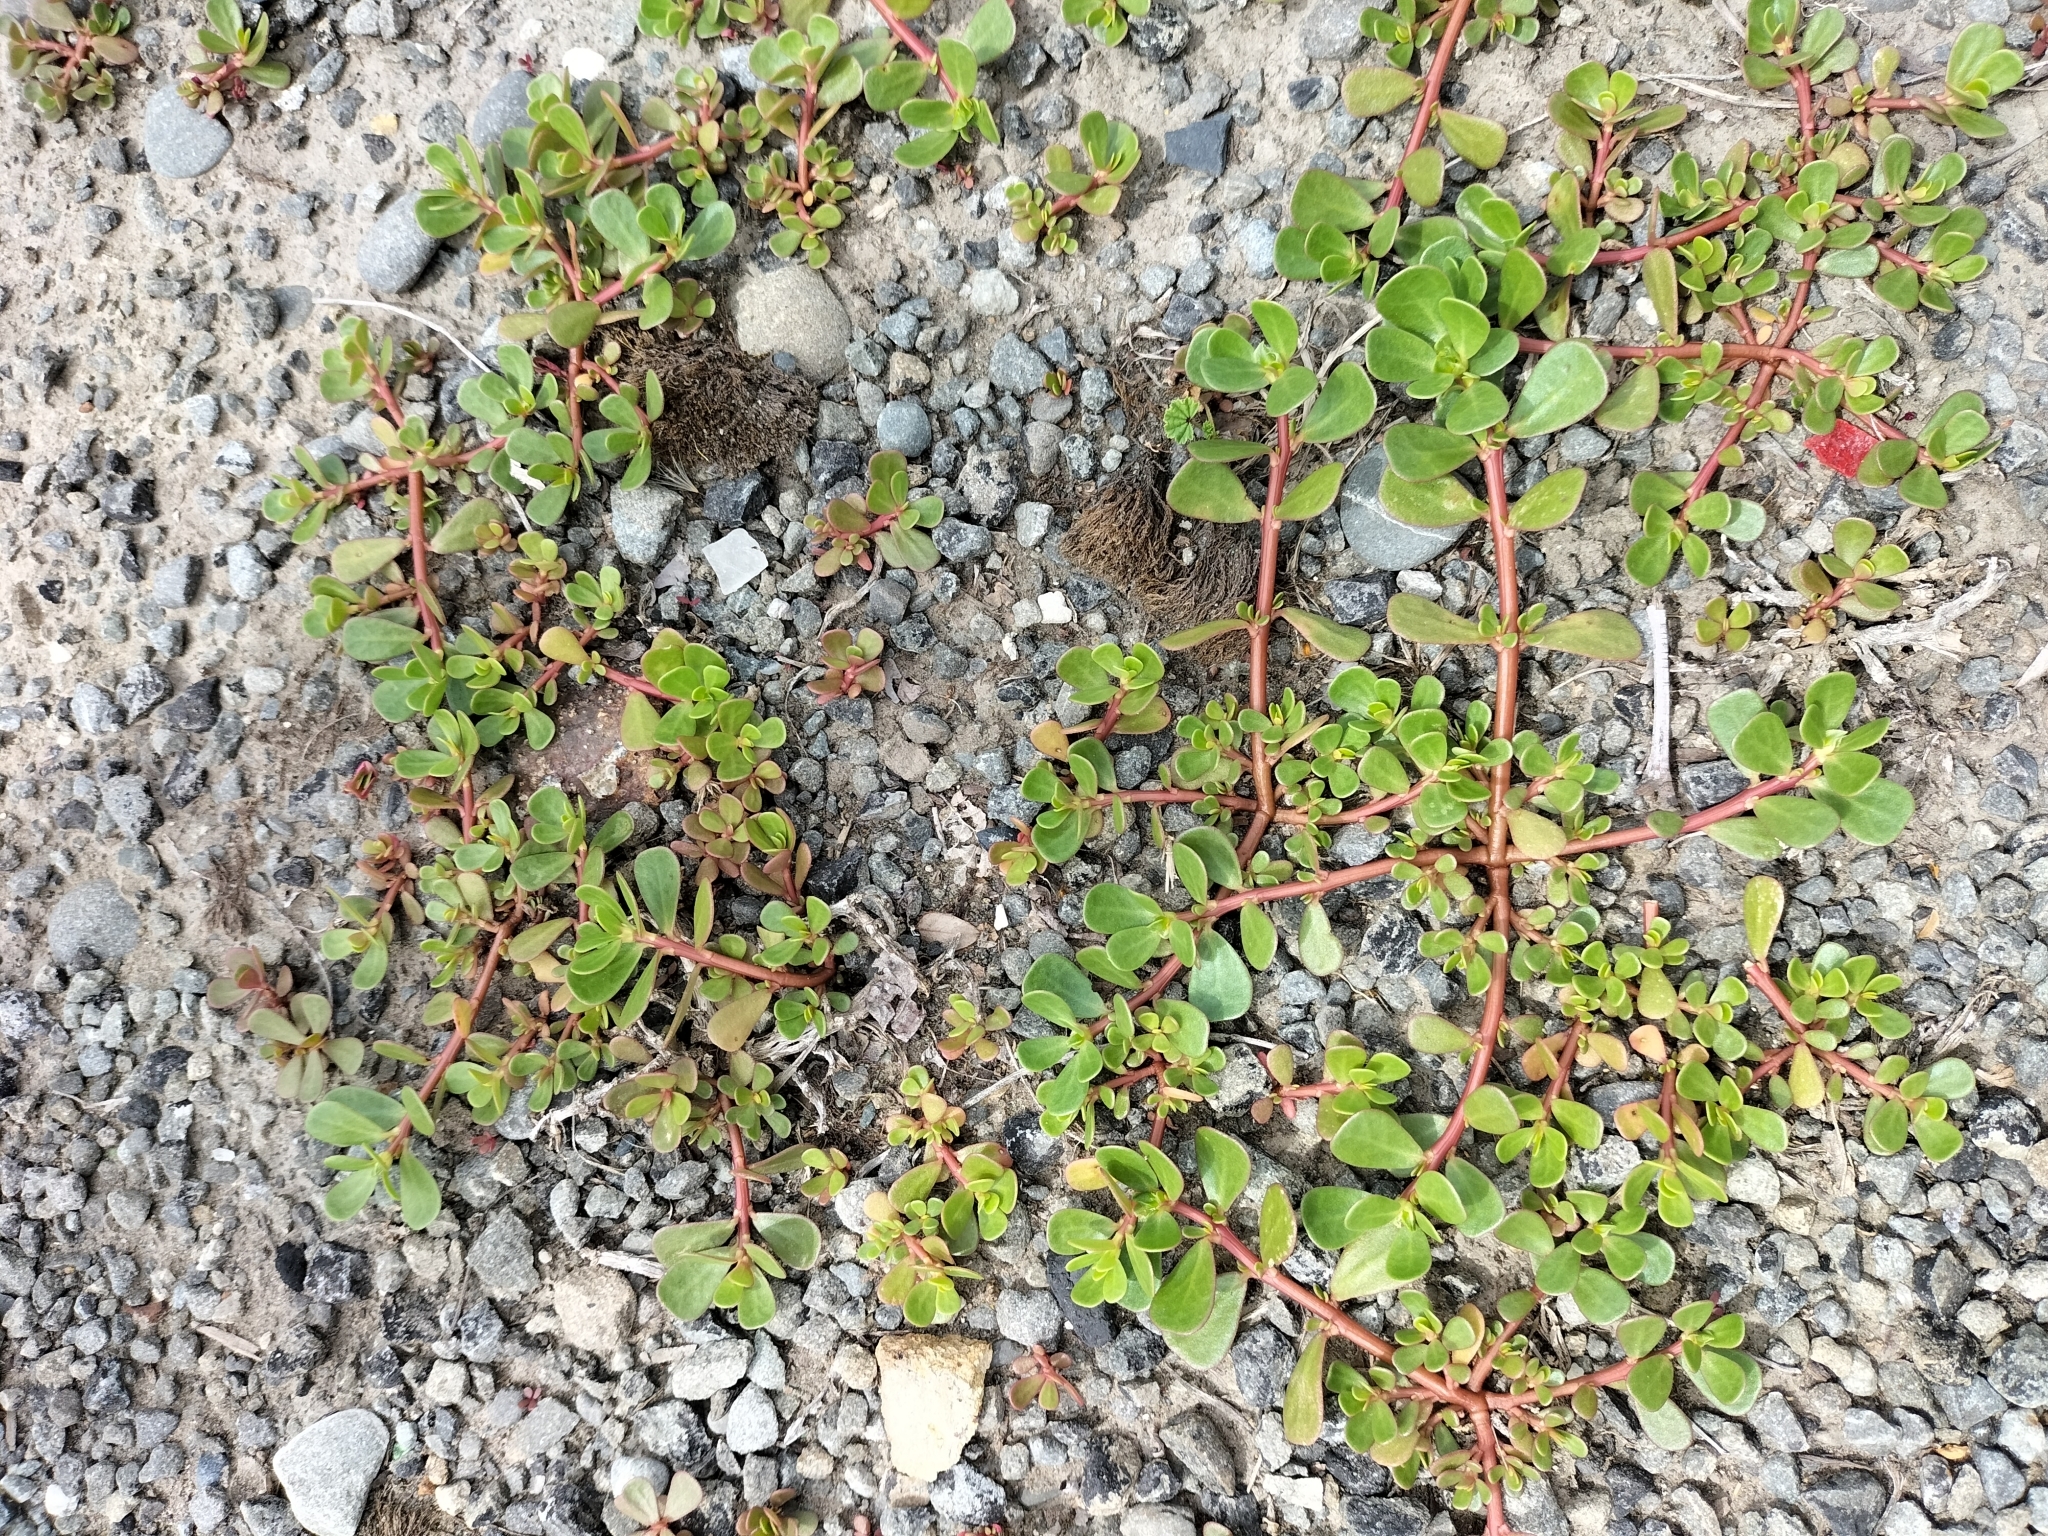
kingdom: Plantae
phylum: Tracheophyta
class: Magnoliopsida
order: Caryophyllales
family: Portulacaceae
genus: Portulaca
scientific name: Portulaca oleracea
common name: Common purslane
